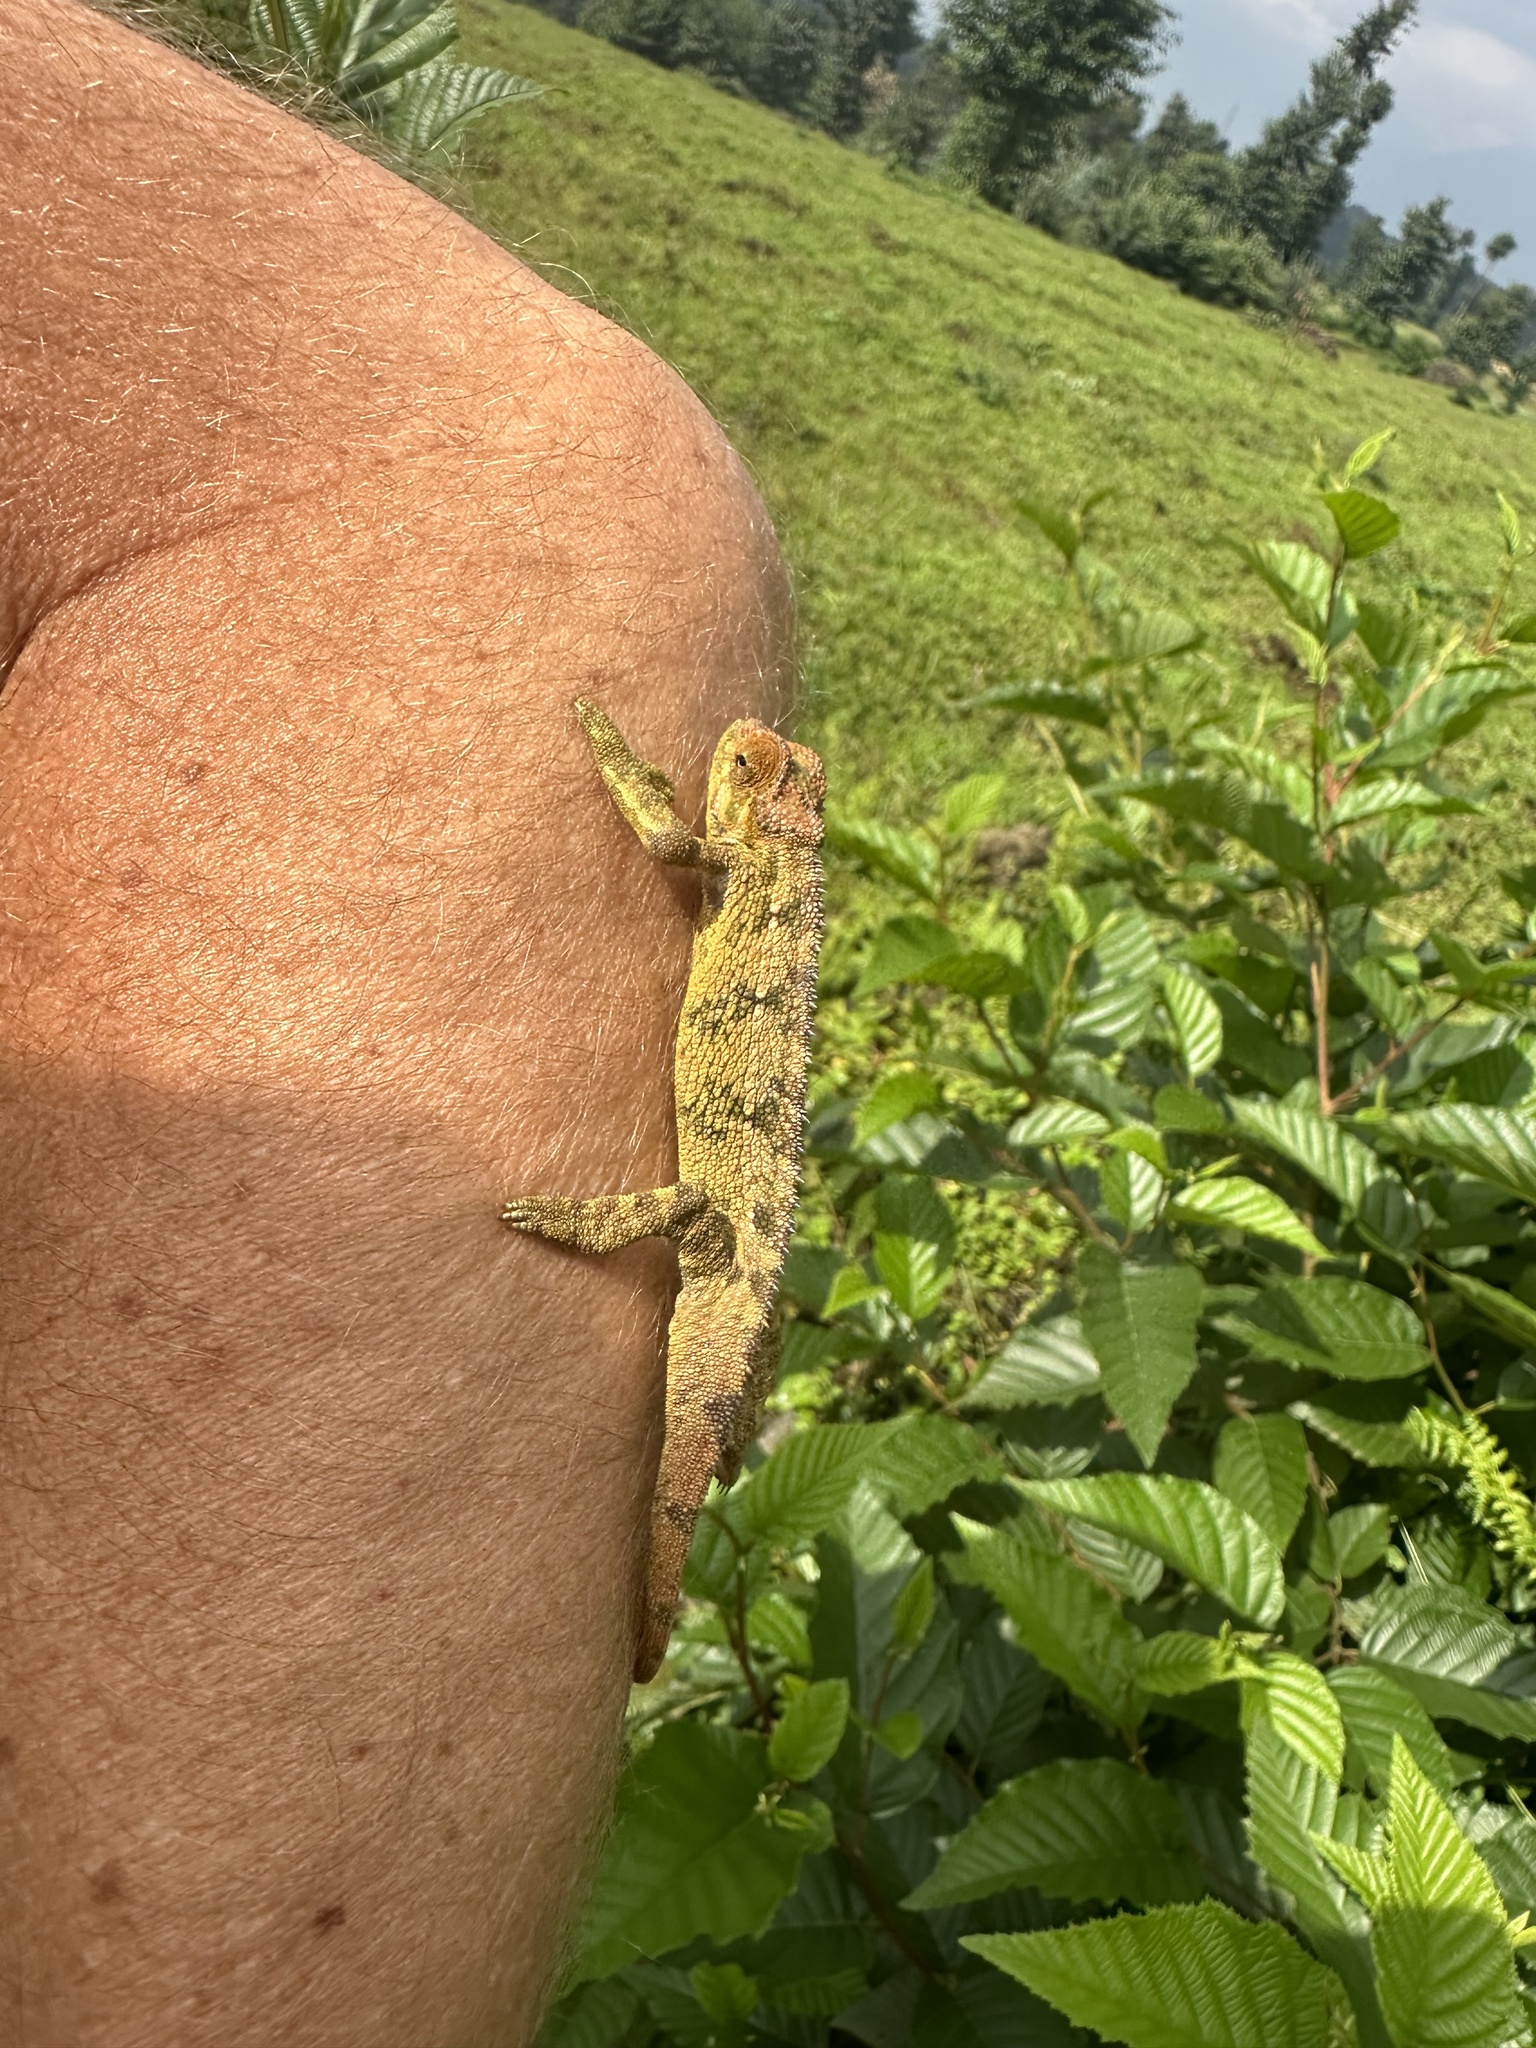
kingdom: Animalia
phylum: Chordata
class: Squamata
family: Chamaeleonidae
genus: Trioceros
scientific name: Trioceros rudis
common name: Coarse chameleon
